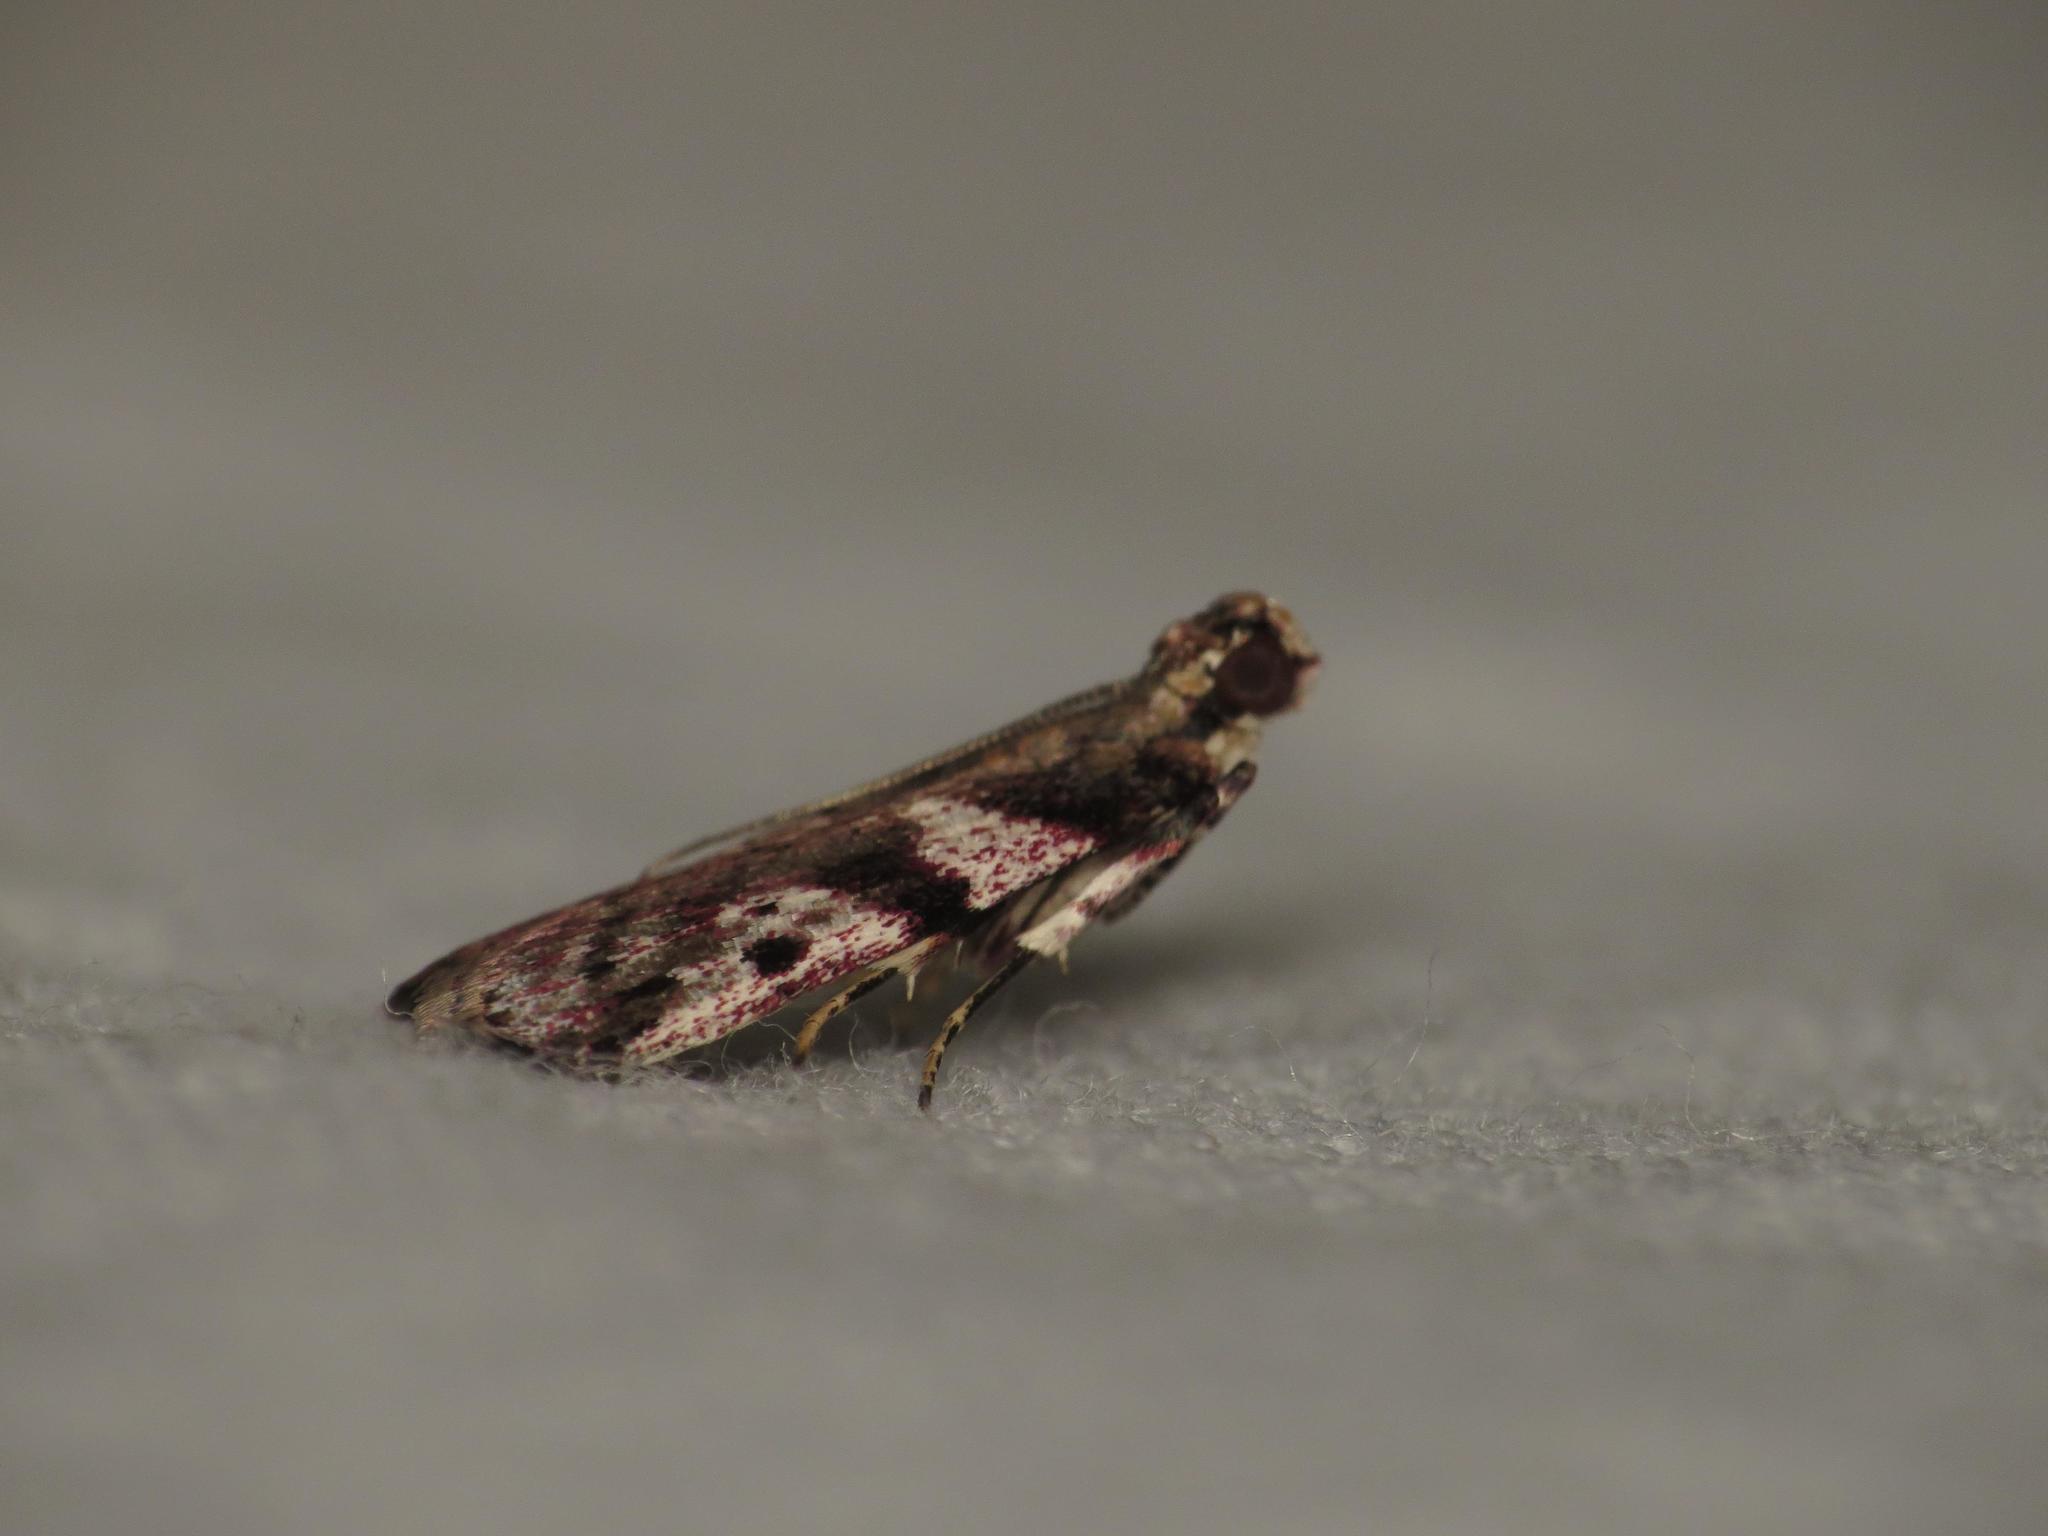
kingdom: Animalia
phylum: Arthropoda
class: Insecta
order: Lepidoptera
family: Pyralidae
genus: Rhodophaea
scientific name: Rhodophaea
